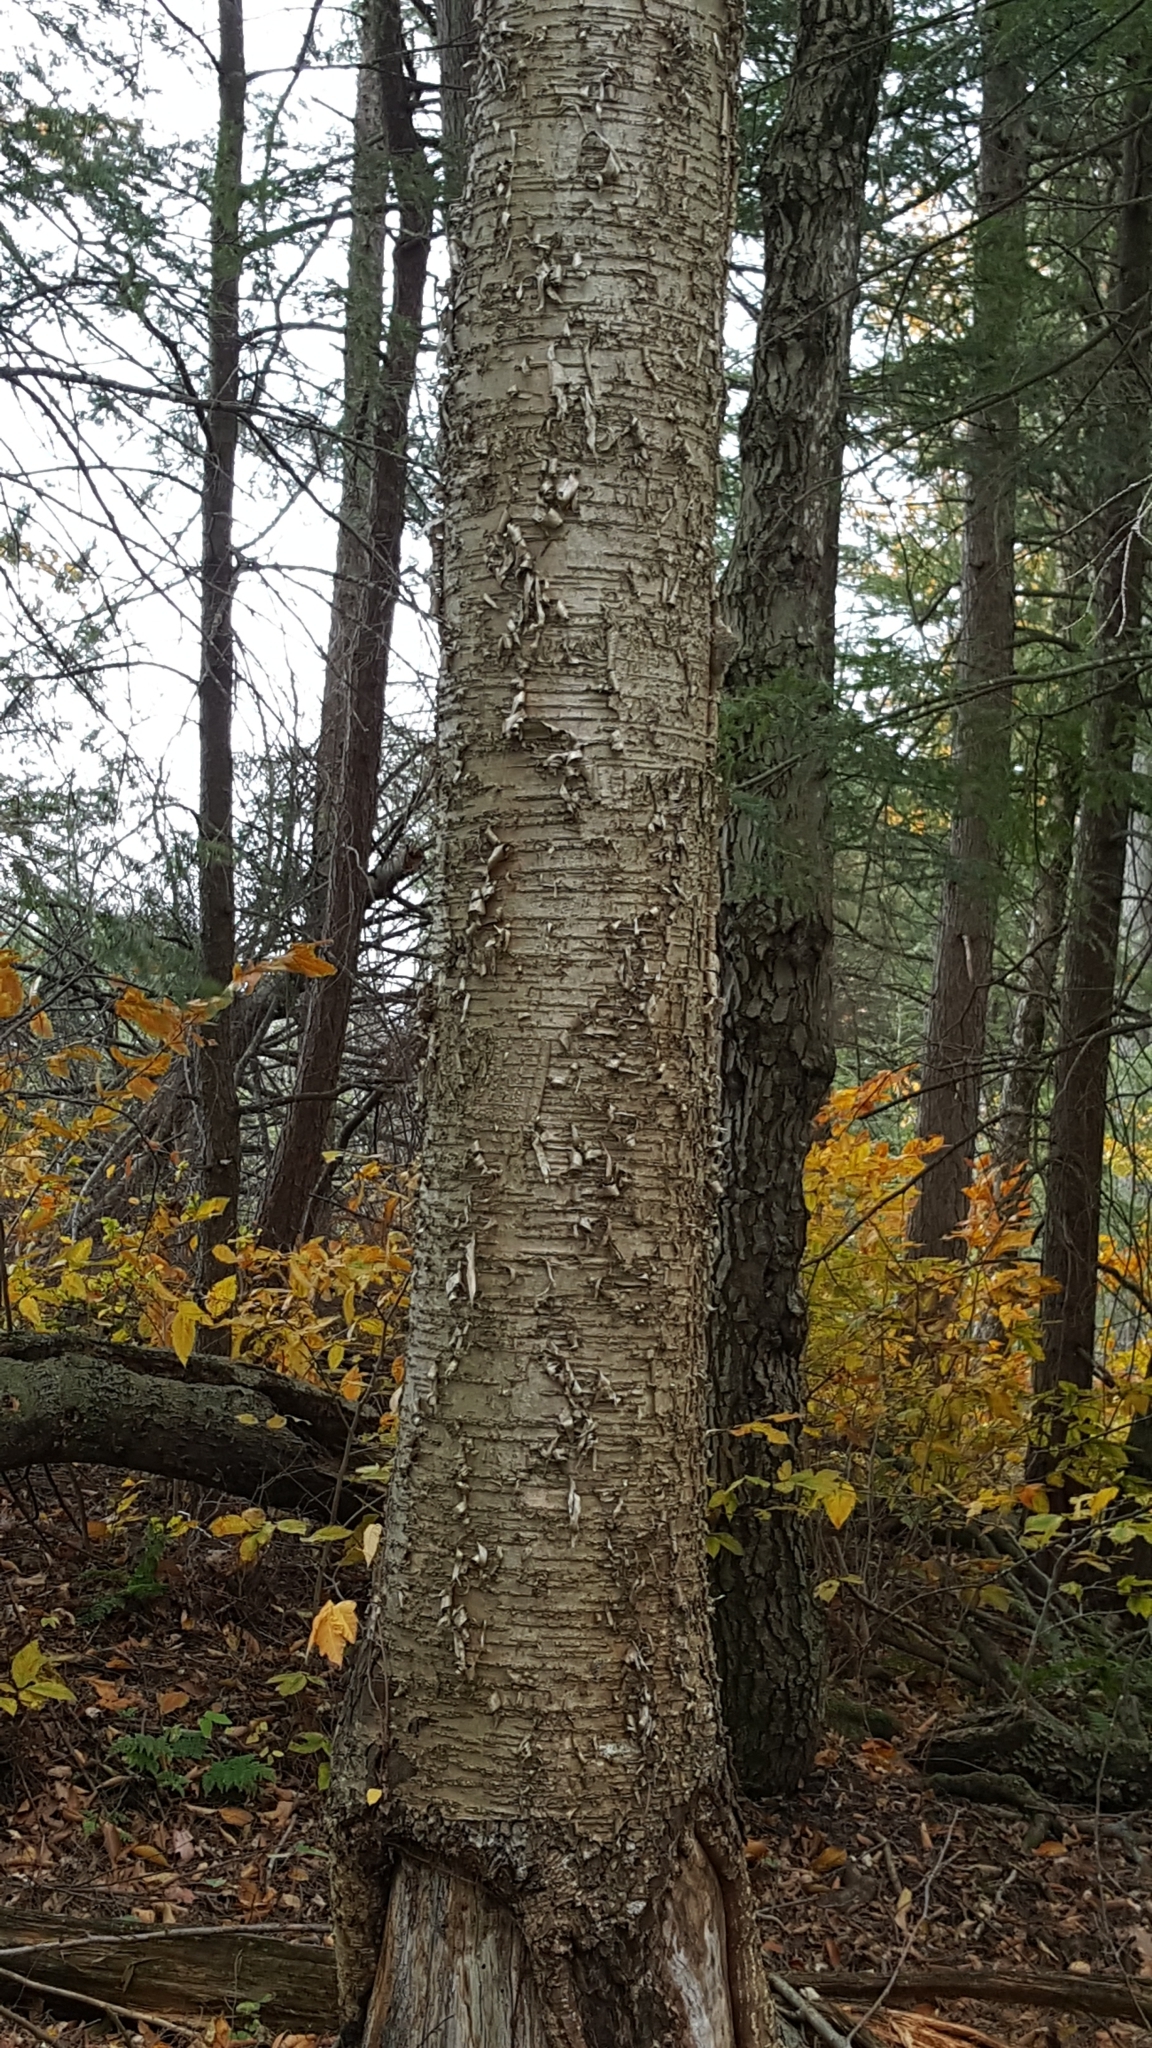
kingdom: Plantae
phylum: Tracheophyta
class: Magnoliopsida
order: Fagales
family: Betulaceae
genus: Betula
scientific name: Betula alleghaniensis
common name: Yellow birch
